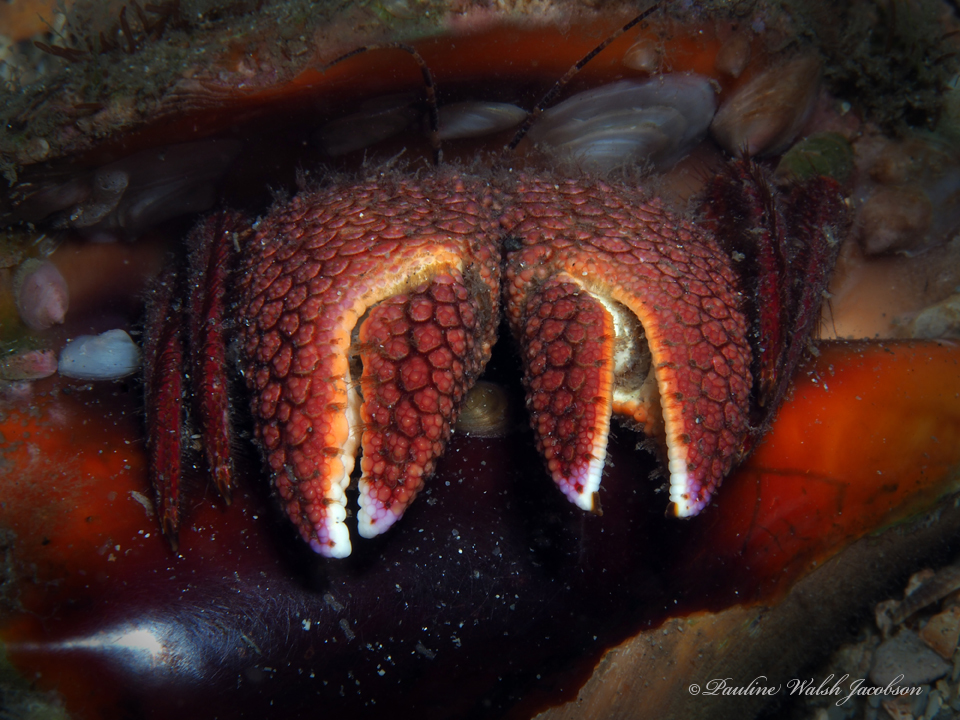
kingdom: Animalia
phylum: Arthropoda
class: Malacostraca
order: Decapoda
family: Diogenidae
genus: Petrochirus
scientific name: Petrochirus diogenes
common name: Giant hermit crab
